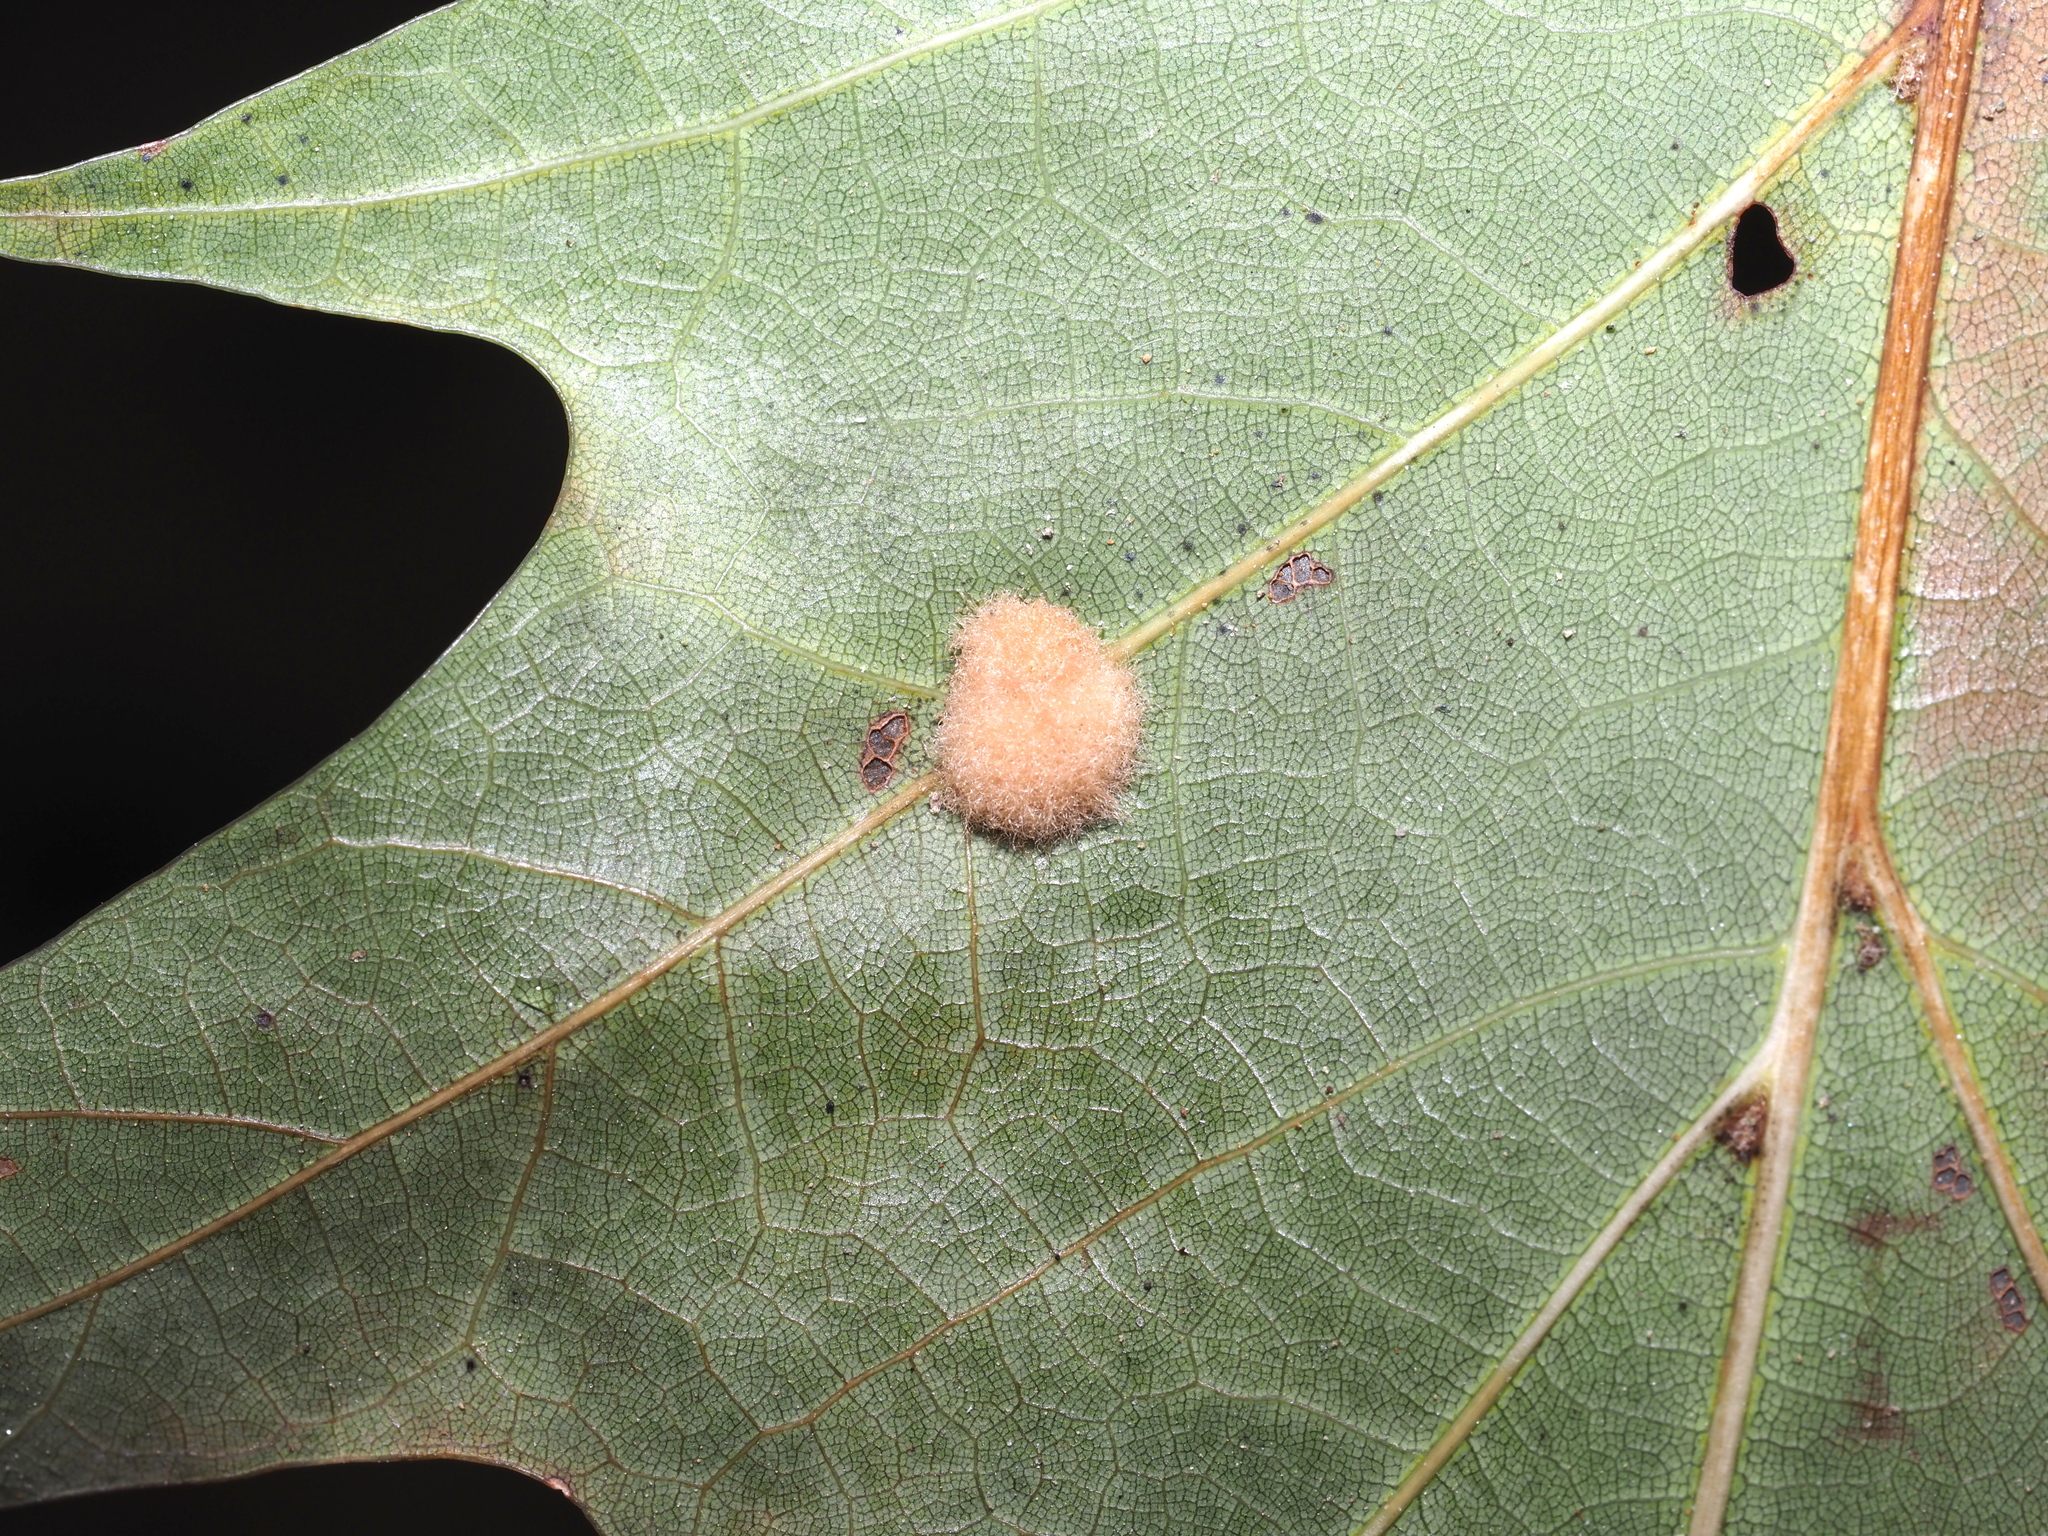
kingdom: Animalia
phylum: Arthropoda
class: Insecta
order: Hymenoptera
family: Cynipidae
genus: Callirhytis
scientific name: Callirhytis
